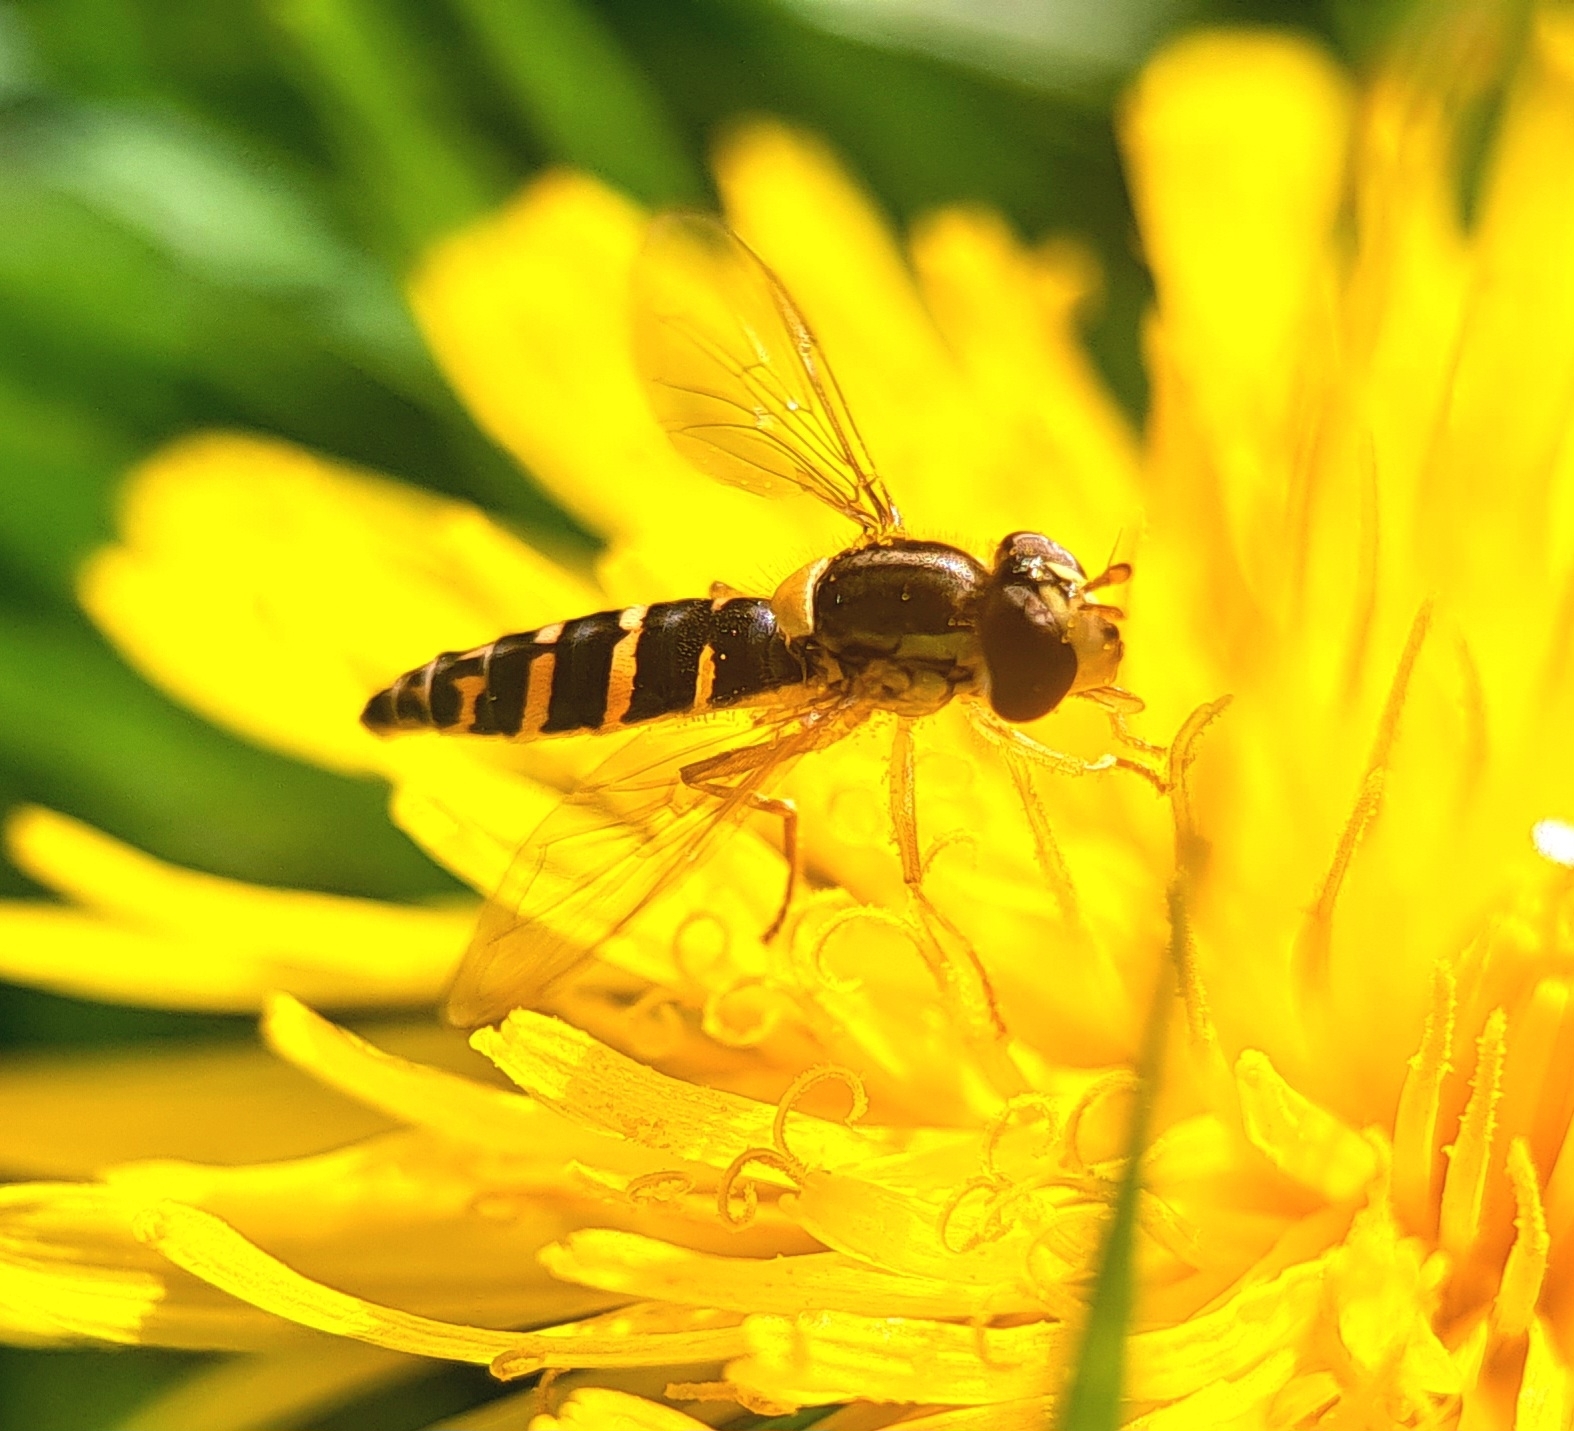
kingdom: Animalia
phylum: Arthropoda
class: Insecta
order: Diptera
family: Syrphidae
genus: Sphaerophoria
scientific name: Sphaerophoria
